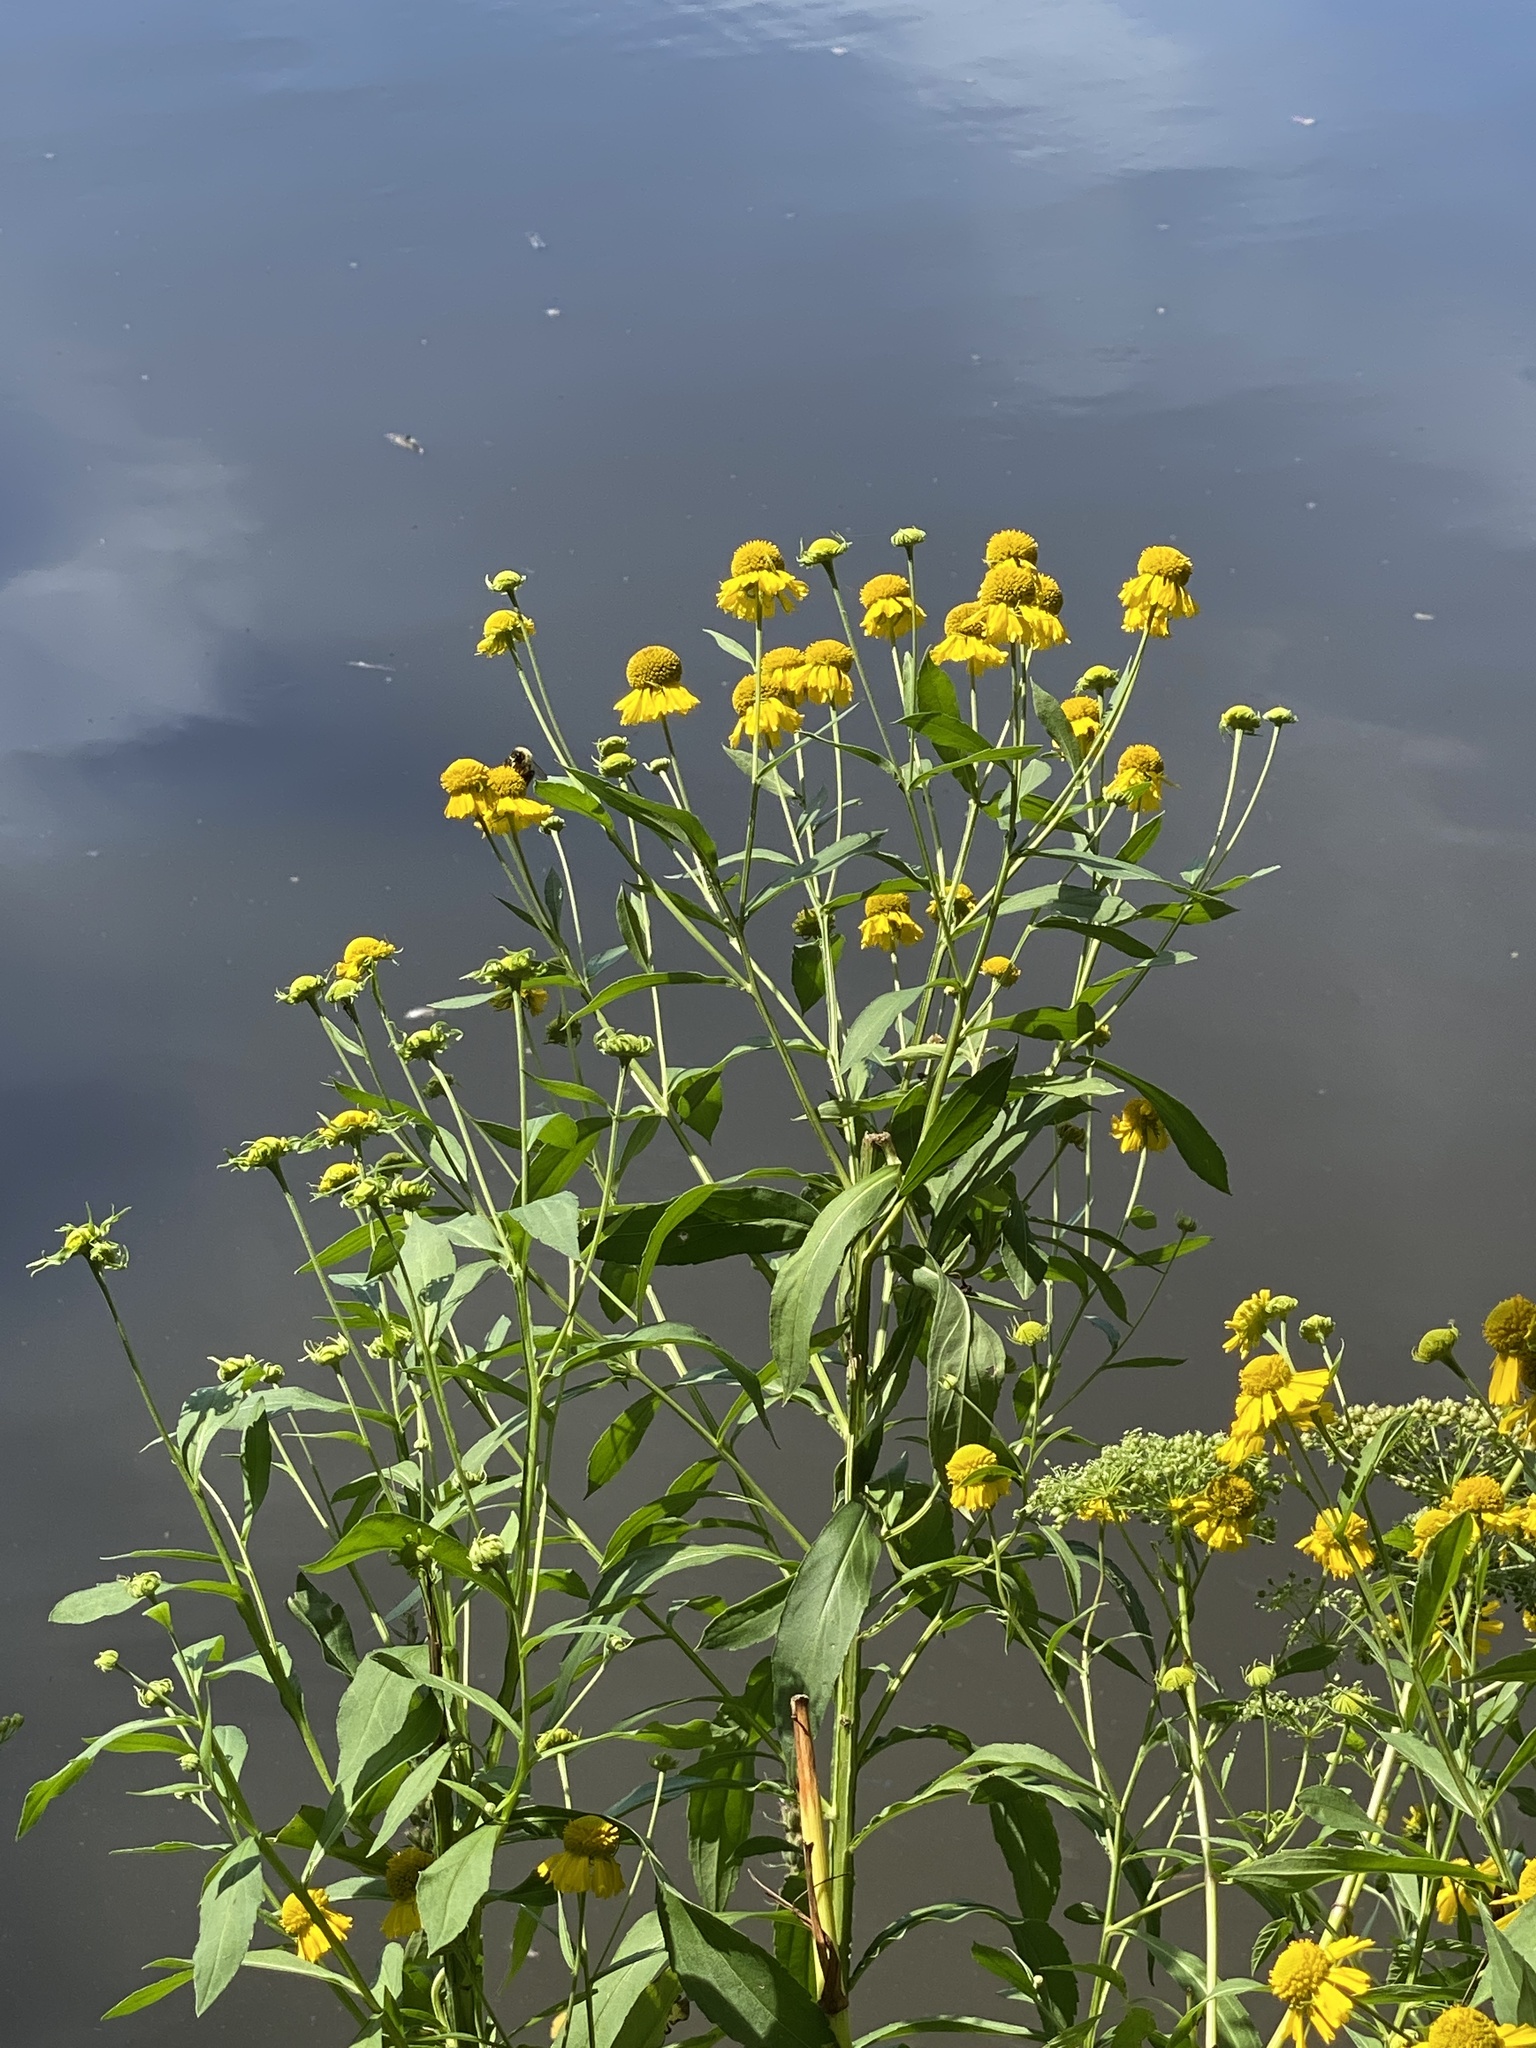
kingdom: Plantae
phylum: Tracheophyta
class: Magnoliopsida
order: Asterales
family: Asteraceae
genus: Helenium
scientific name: Helenium autumnale
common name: Sneezeweed
